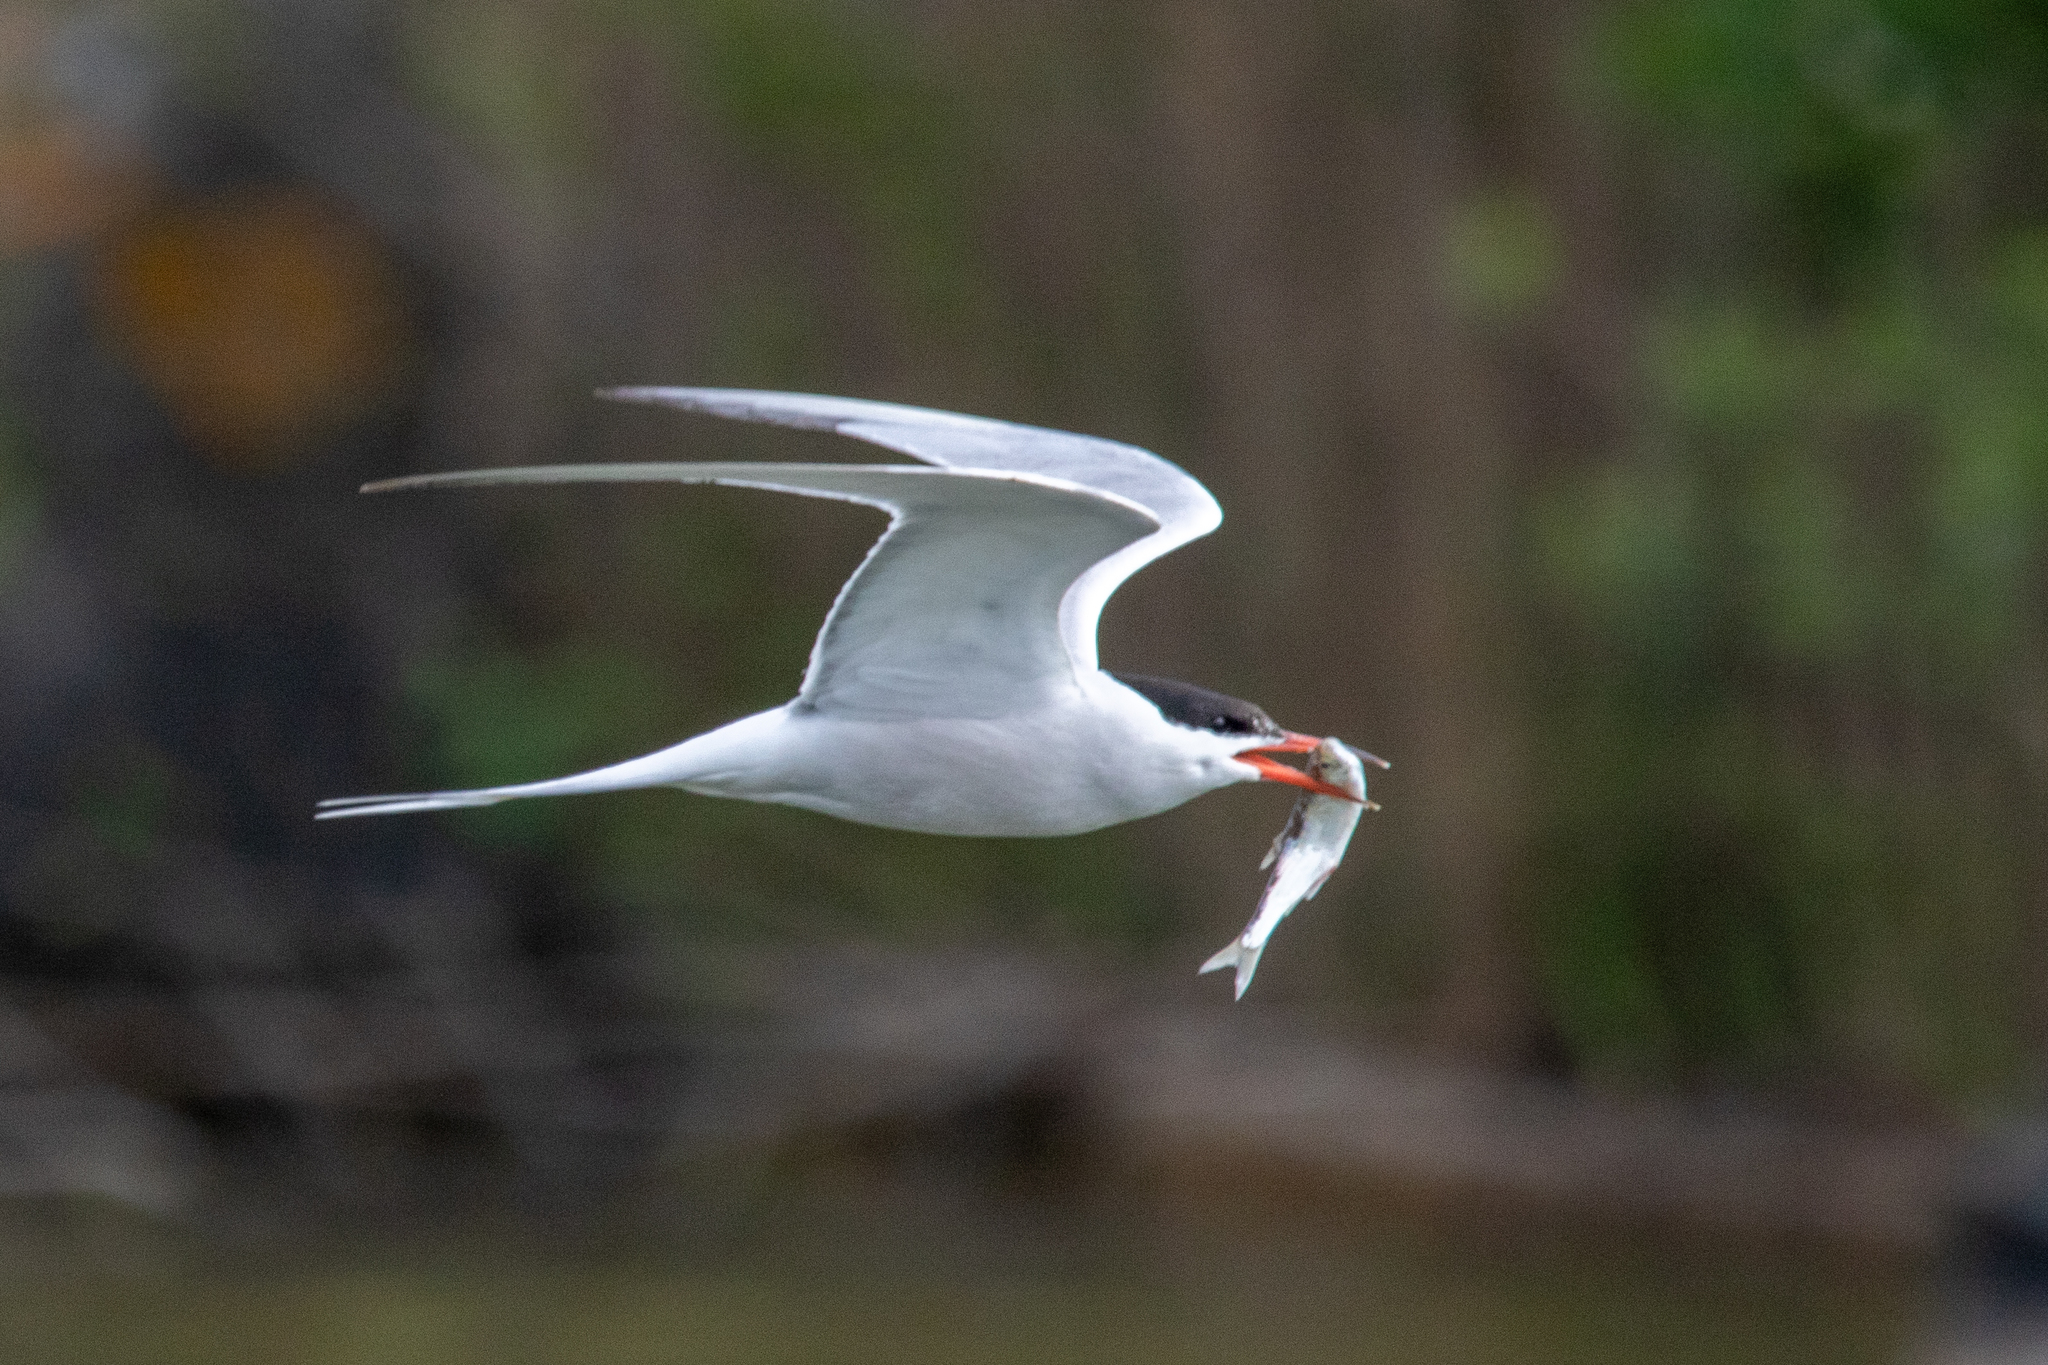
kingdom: Animalia
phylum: Chordata
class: Aves
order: Charadriiformes
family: Laridae
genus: Sterna
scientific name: Sterna hirundo
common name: Common tern
